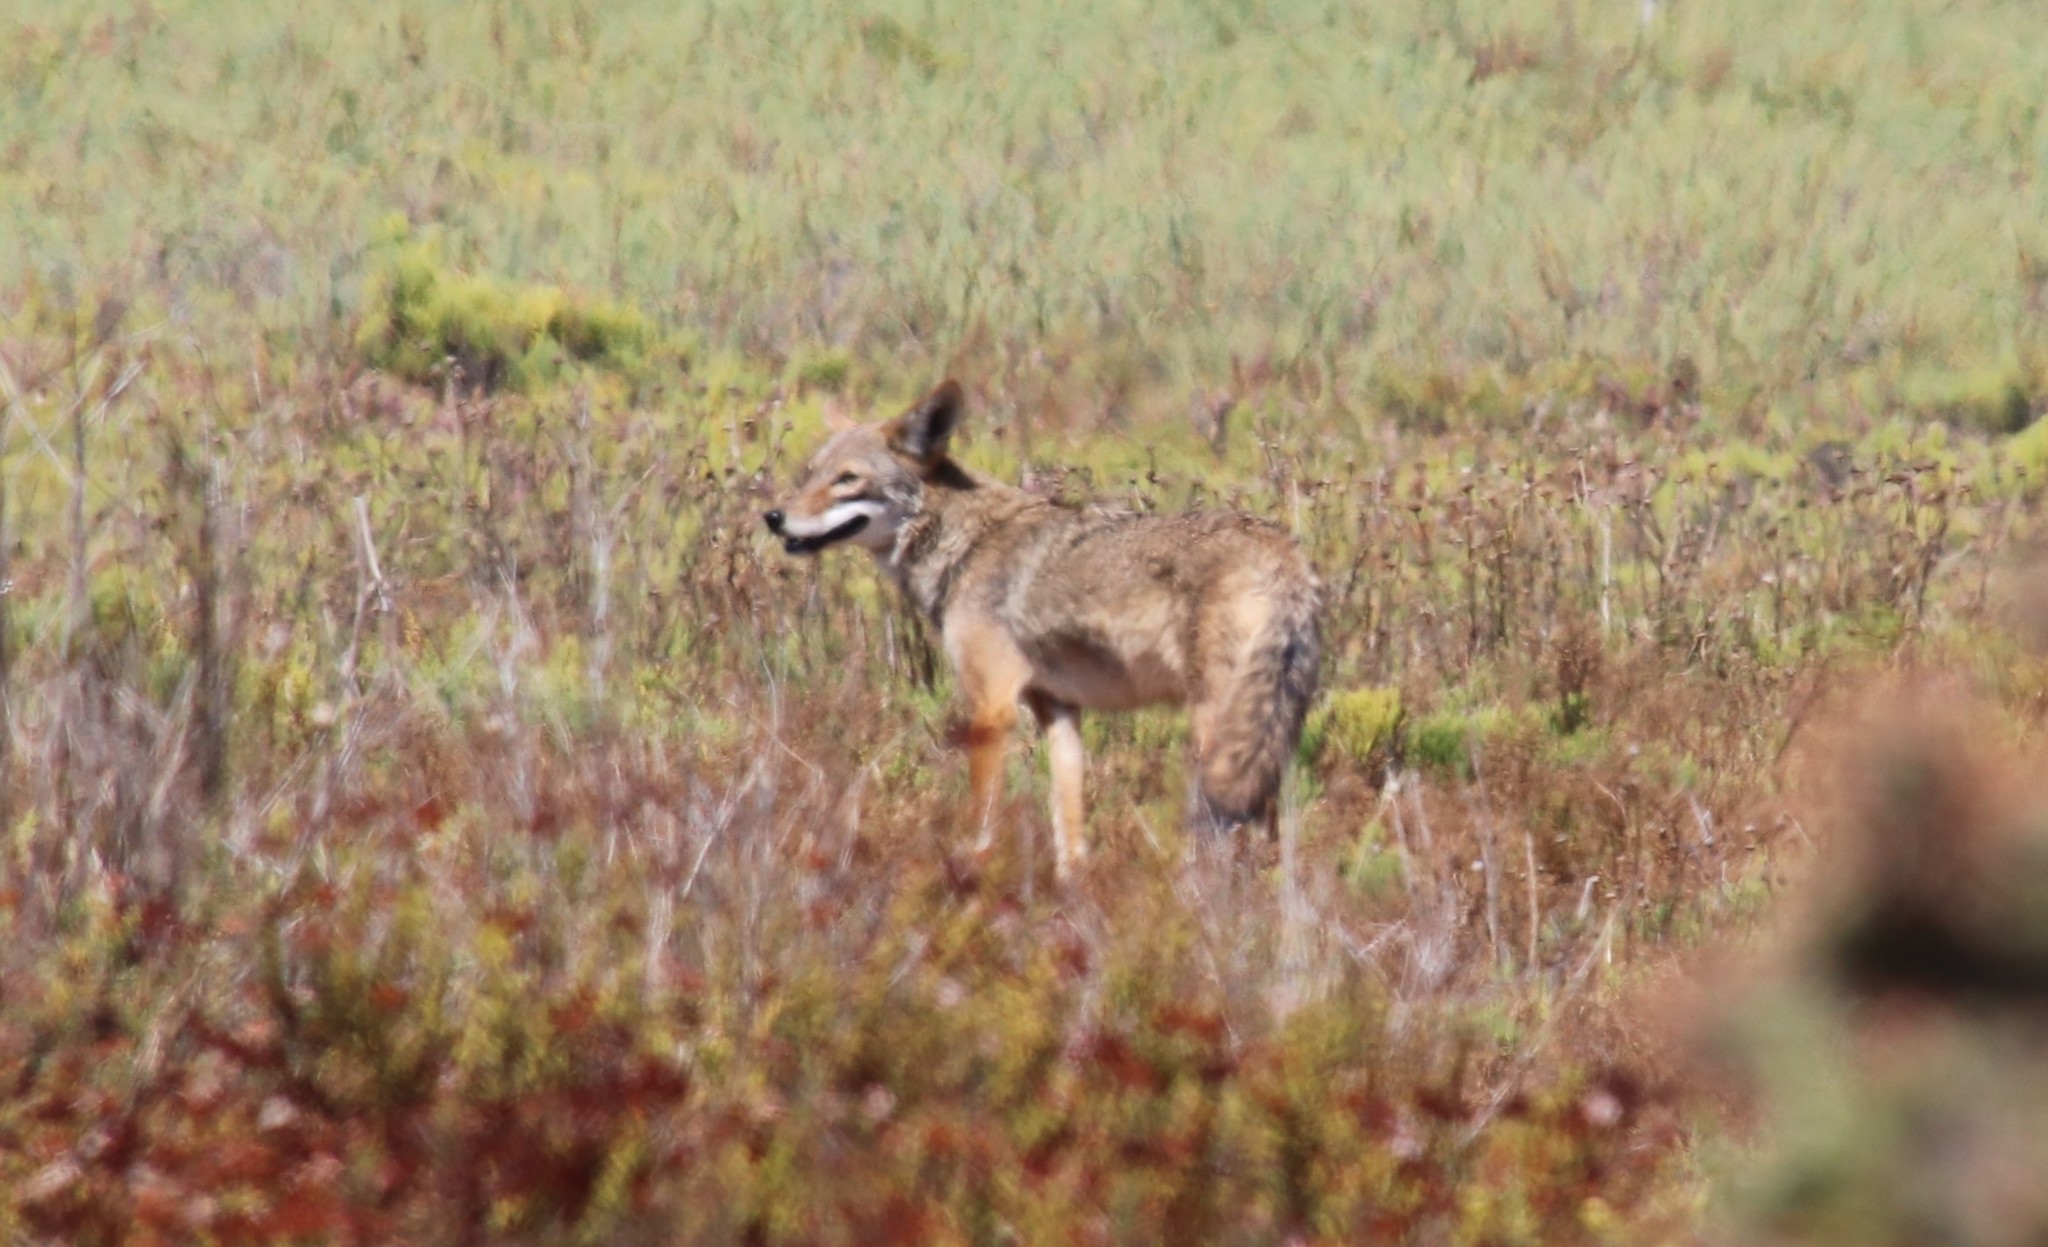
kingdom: Animalia
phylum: Chordata
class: Mammalia
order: Carnivora
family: Canidae
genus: Canis
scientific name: Canis latrans
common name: Coyote
